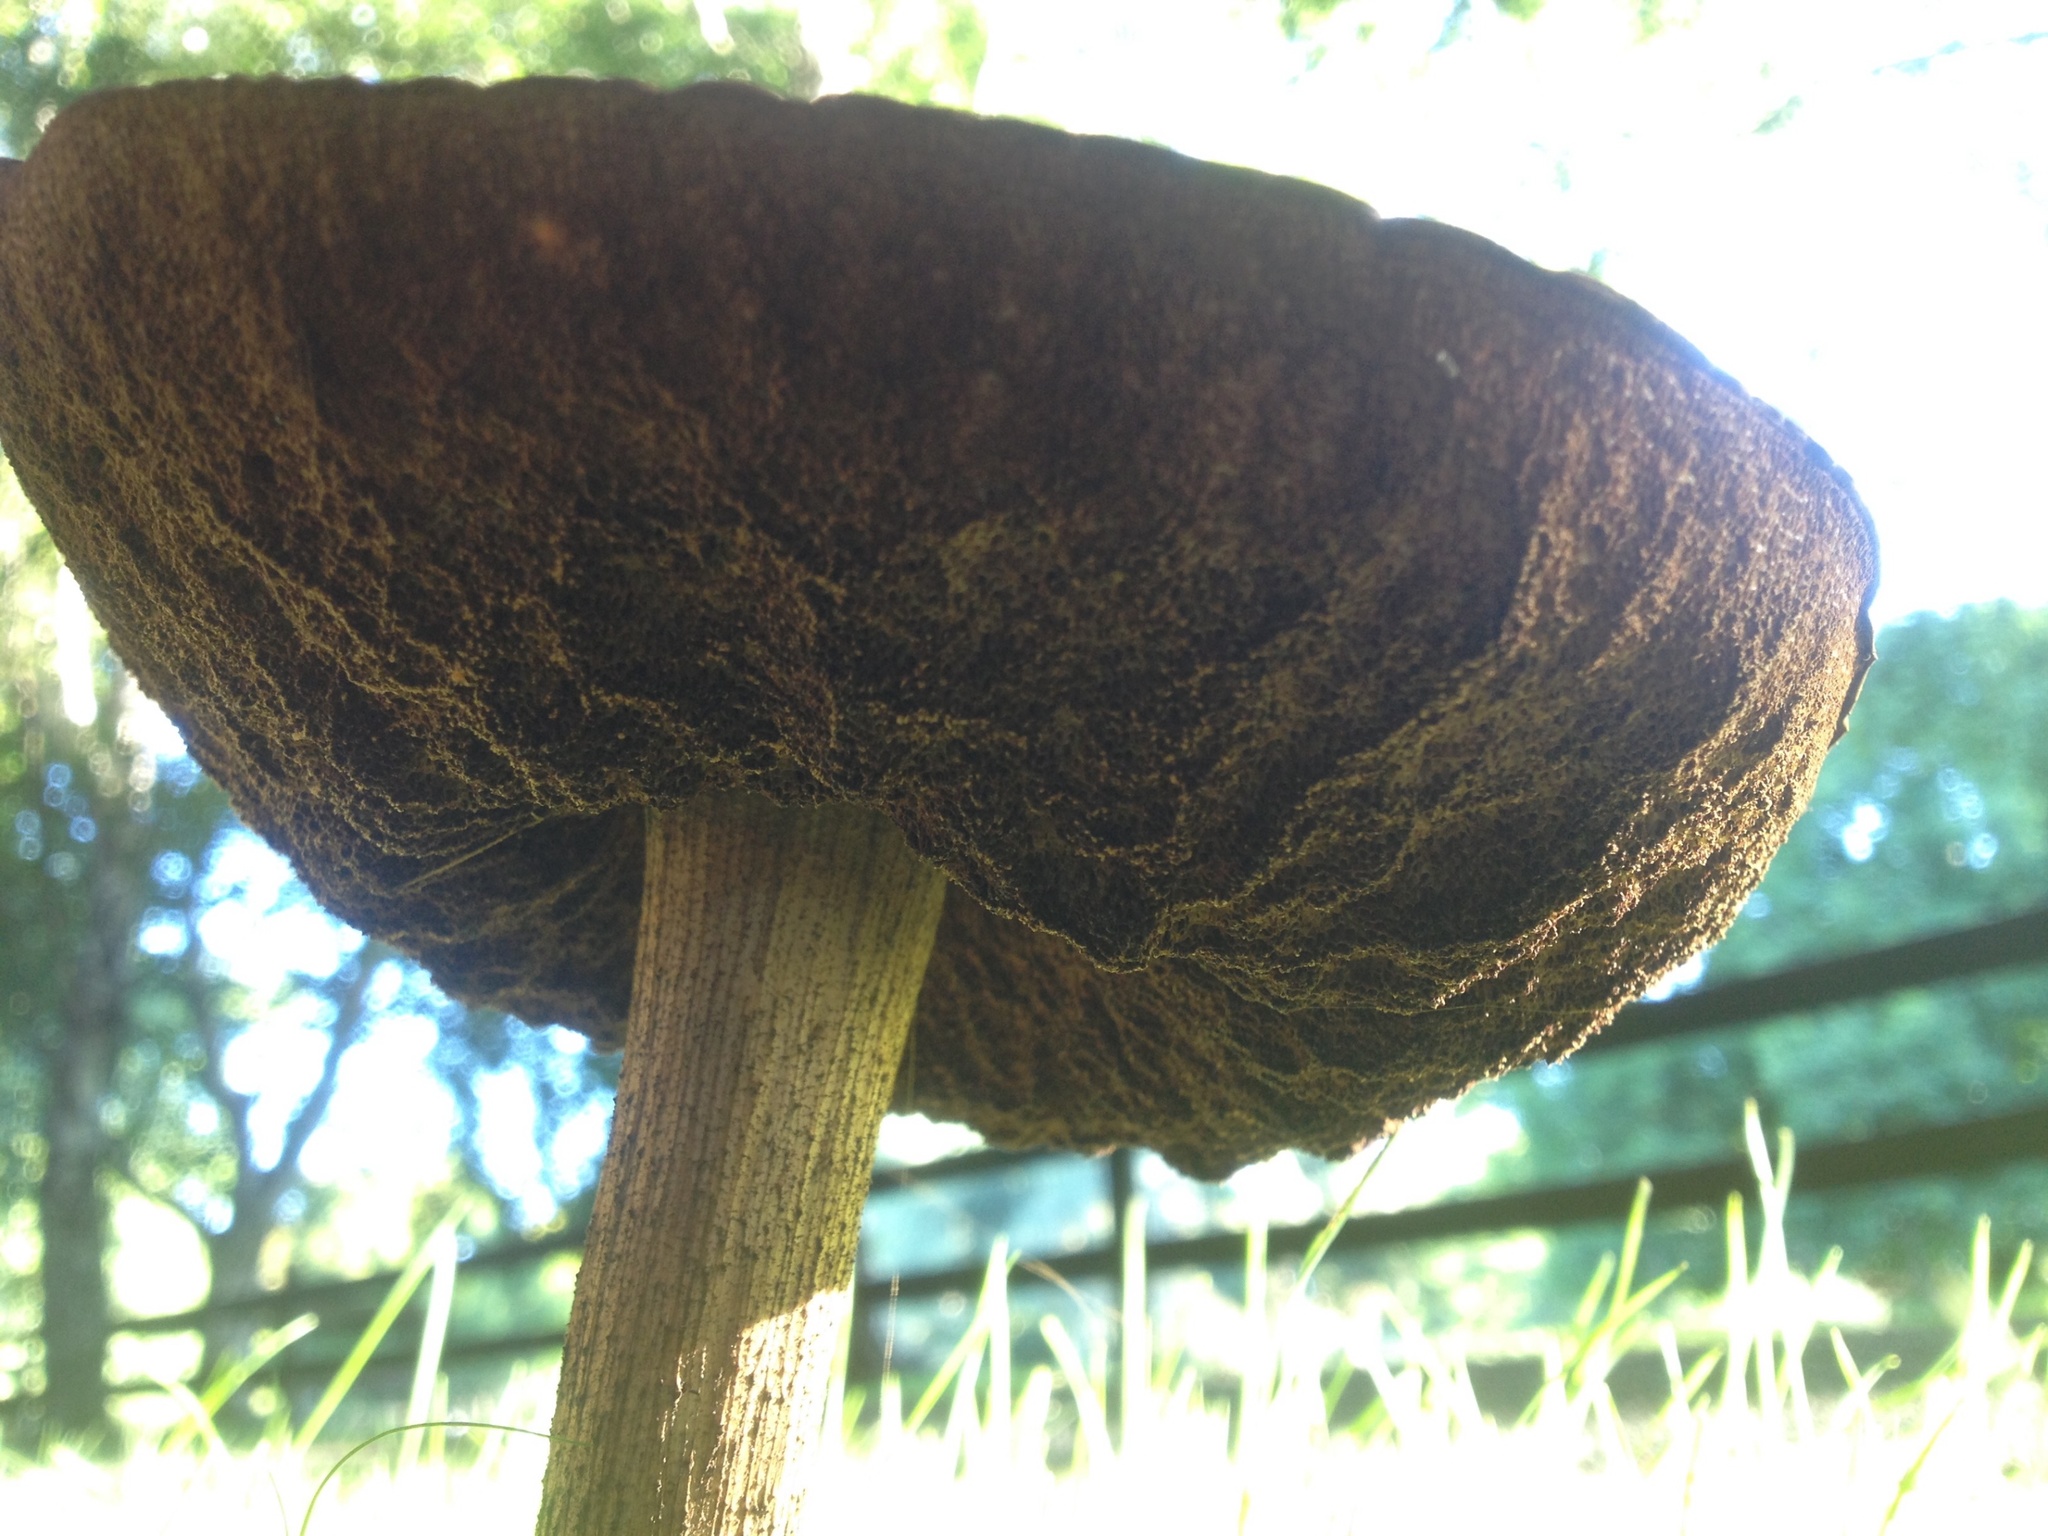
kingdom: Fungi
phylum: Basidiomycota
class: Agaricomycetes
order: Boletales
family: Boletaceae
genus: Leccinum
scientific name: Leccinum scabrum
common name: Blushing bolete
